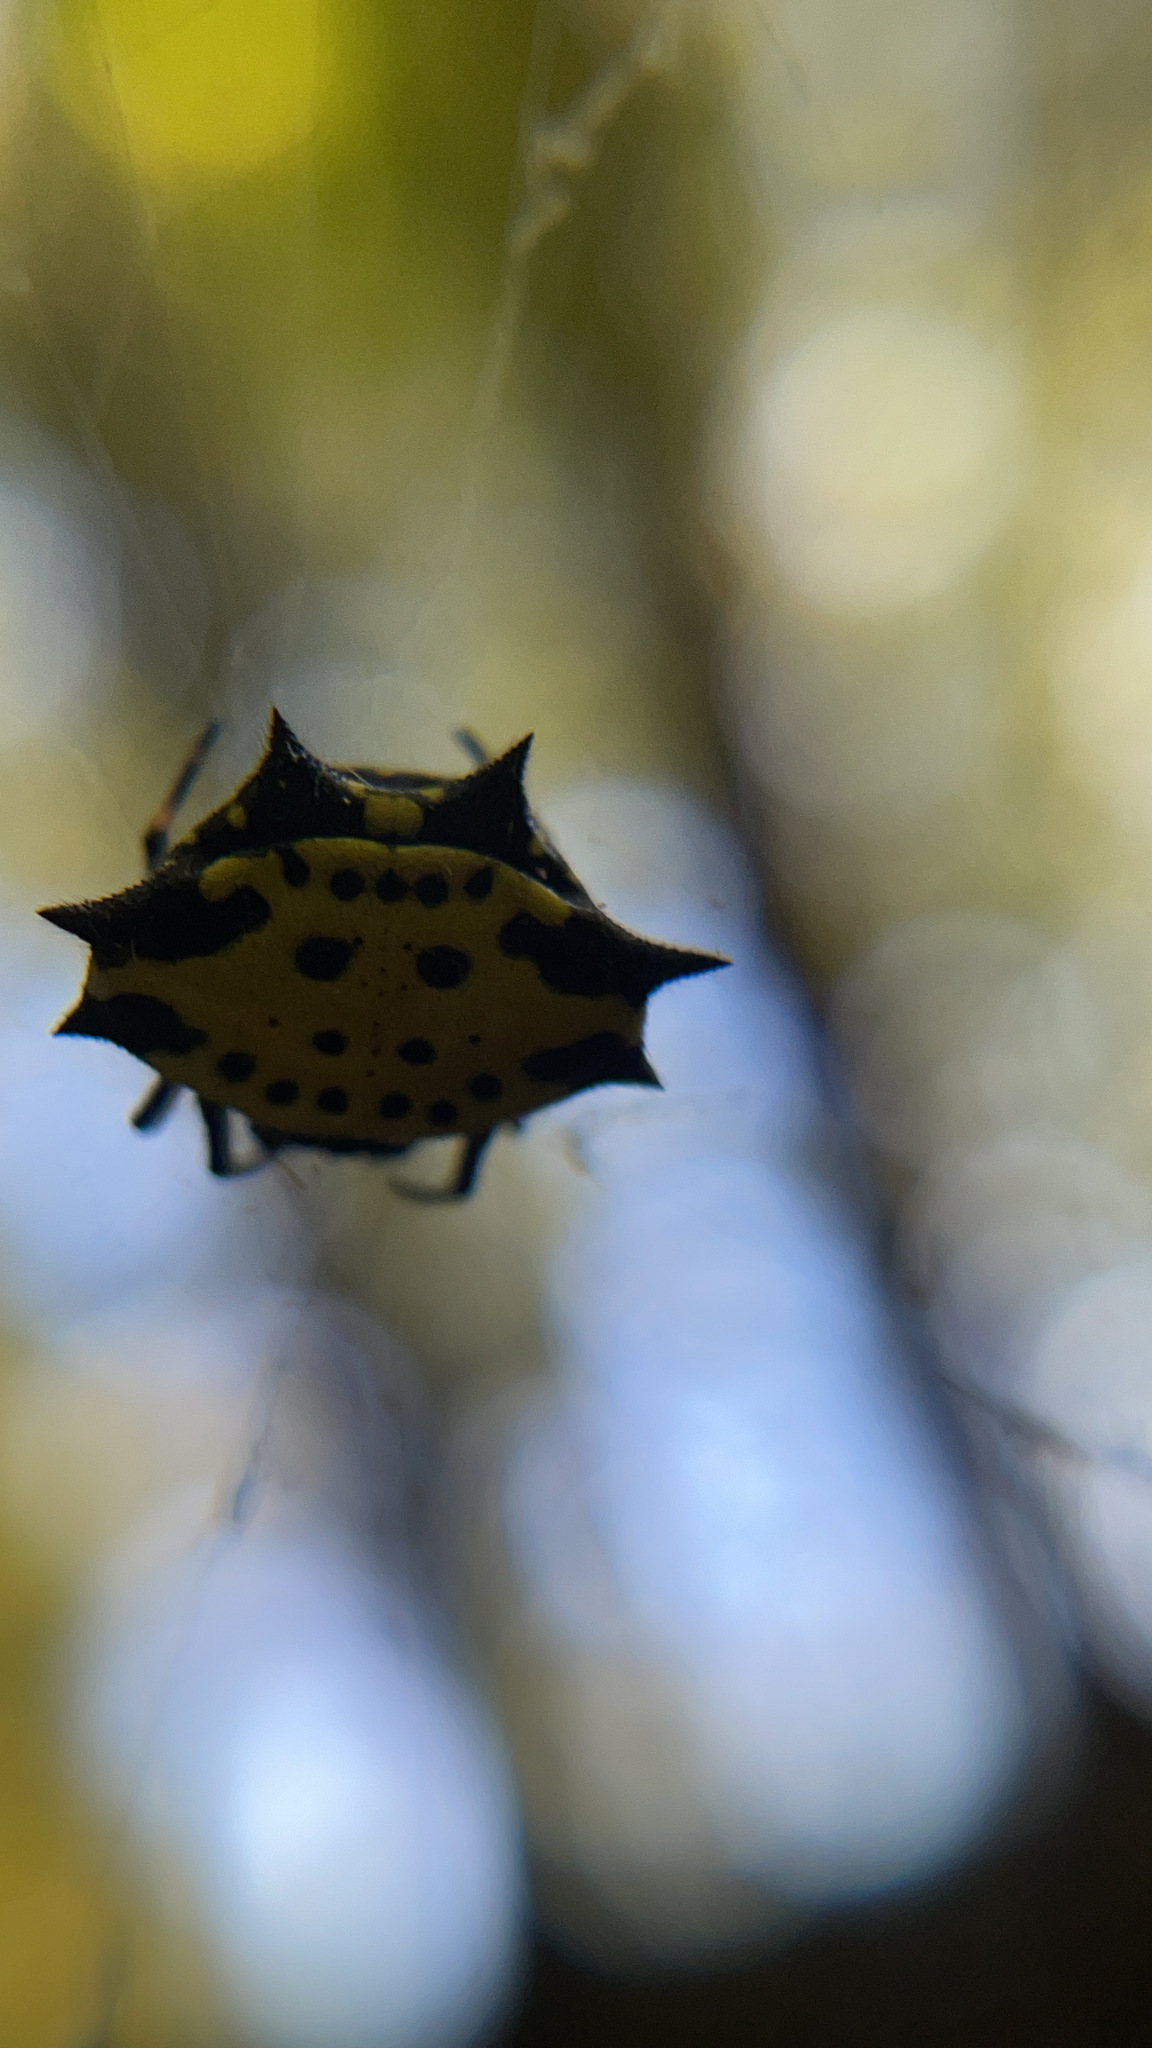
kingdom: Animalia
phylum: Arthropoda
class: Arachnida
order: Araneae
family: Araneidae
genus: Gasteracantha
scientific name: Gasteracantha cancriformis
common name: Orb weavers
